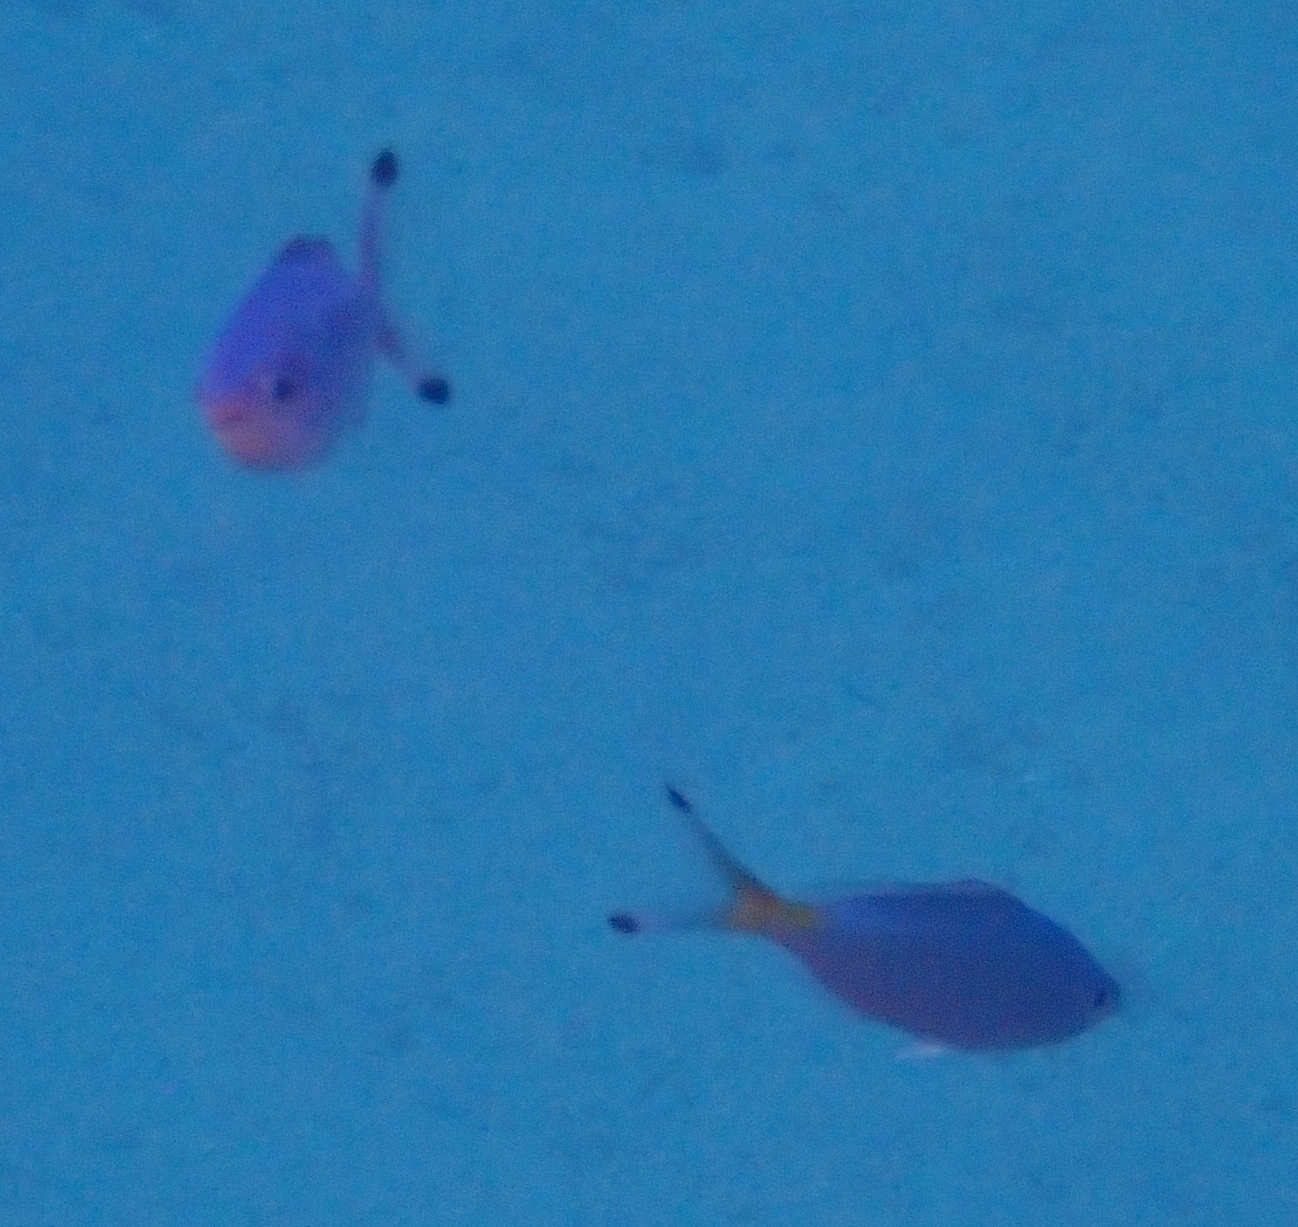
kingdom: Animalia
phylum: Chordata
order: Perciformes
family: Caesionidae
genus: Caesio
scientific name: Caesio lunaris
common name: Blue fusilier
